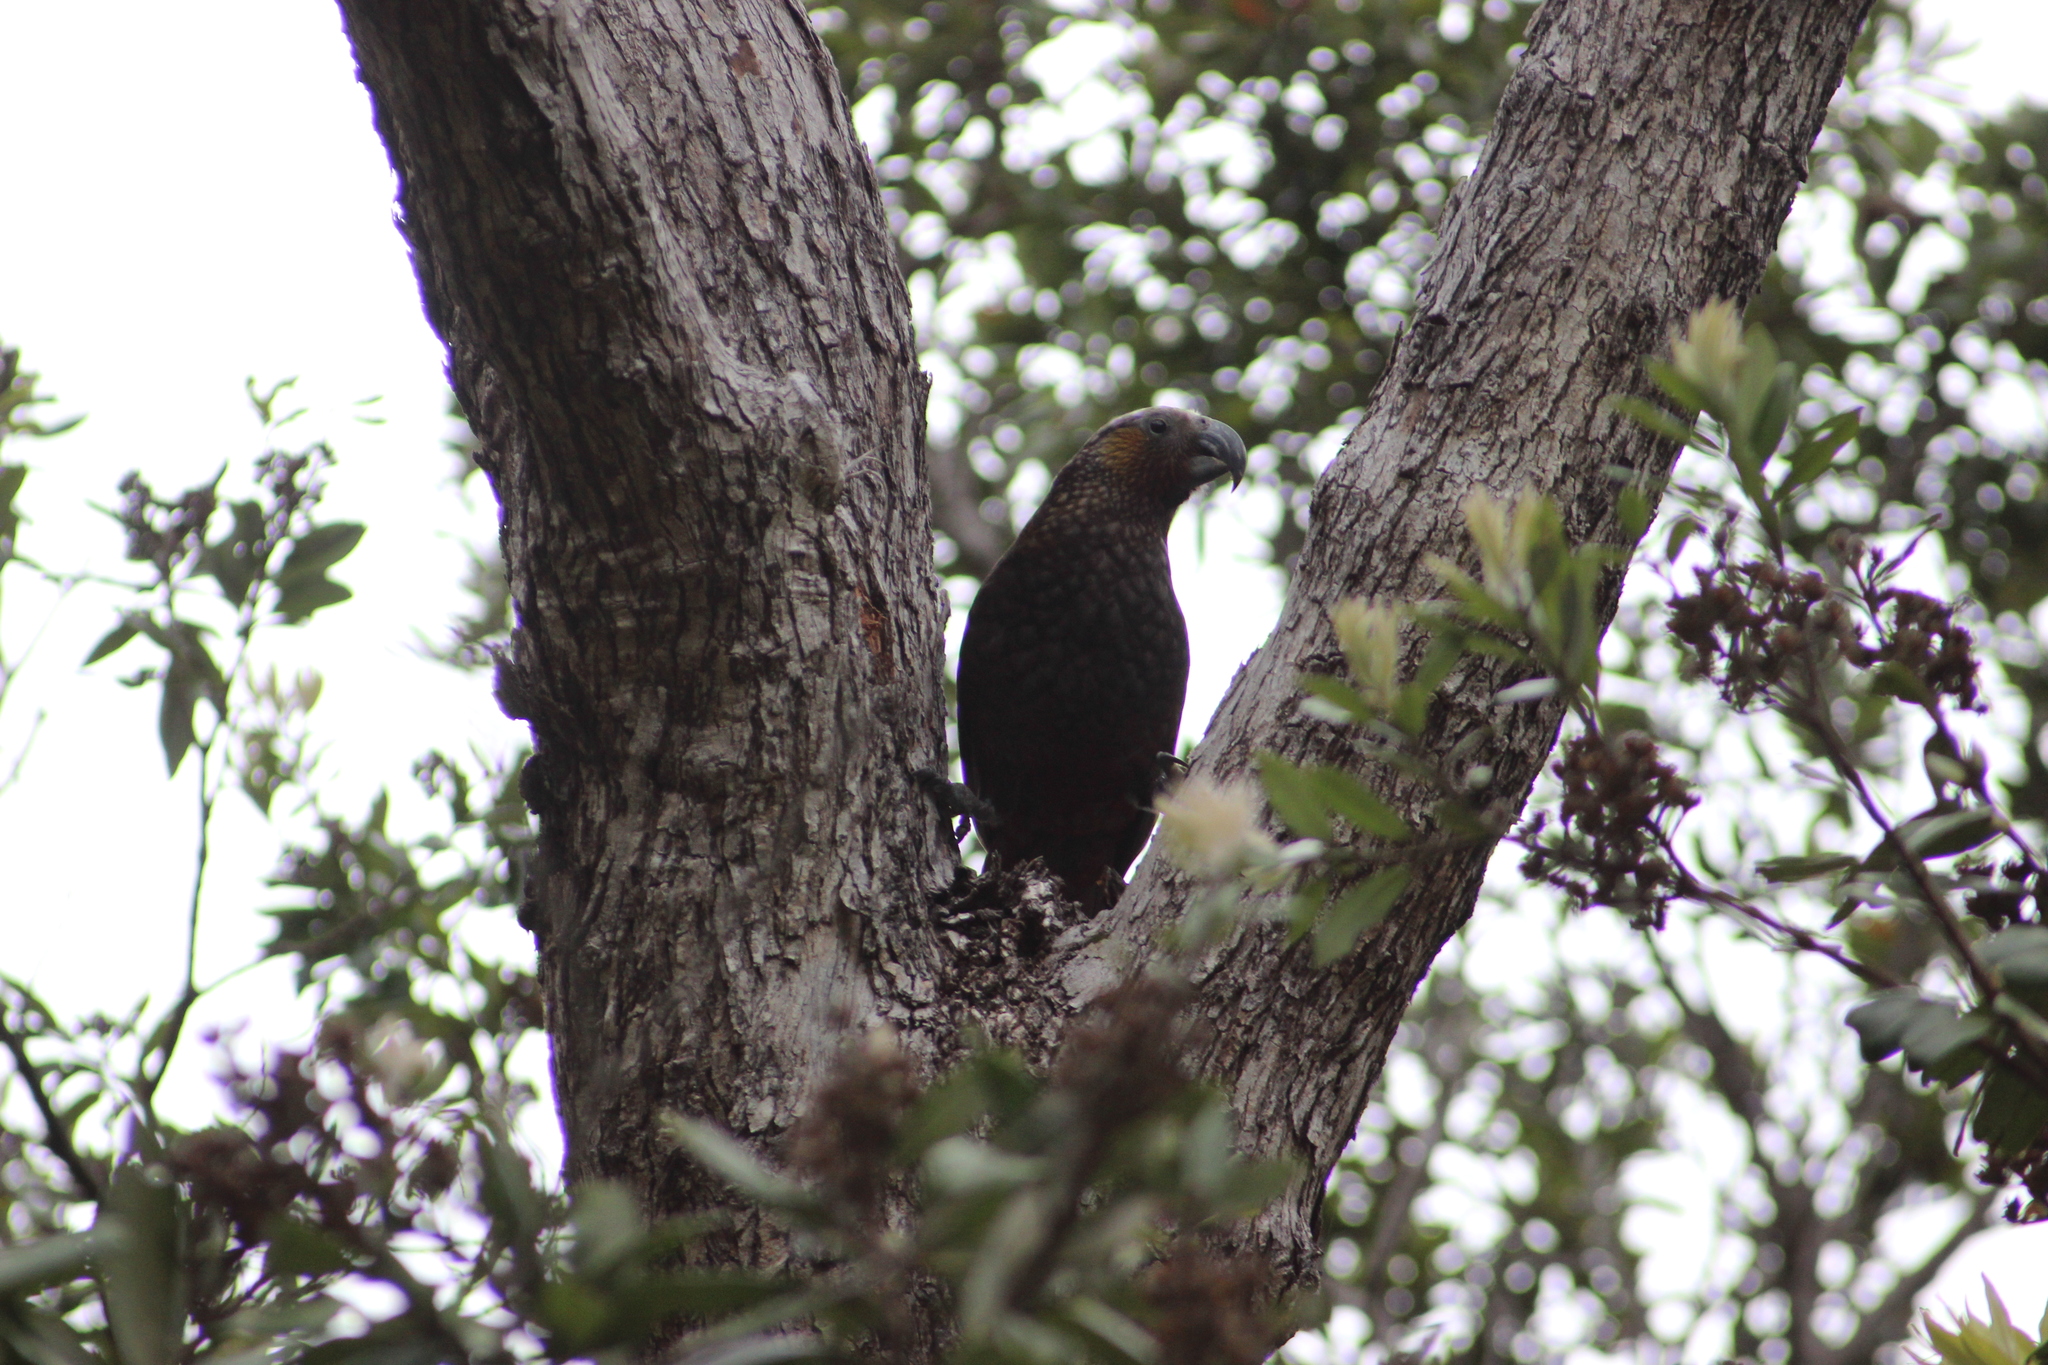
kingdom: Animalia
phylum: Chordata
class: Aves
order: Psittaciformes
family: Psittacidae
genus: Nestor
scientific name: Nestor meridionalis
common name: New zealand kaka
